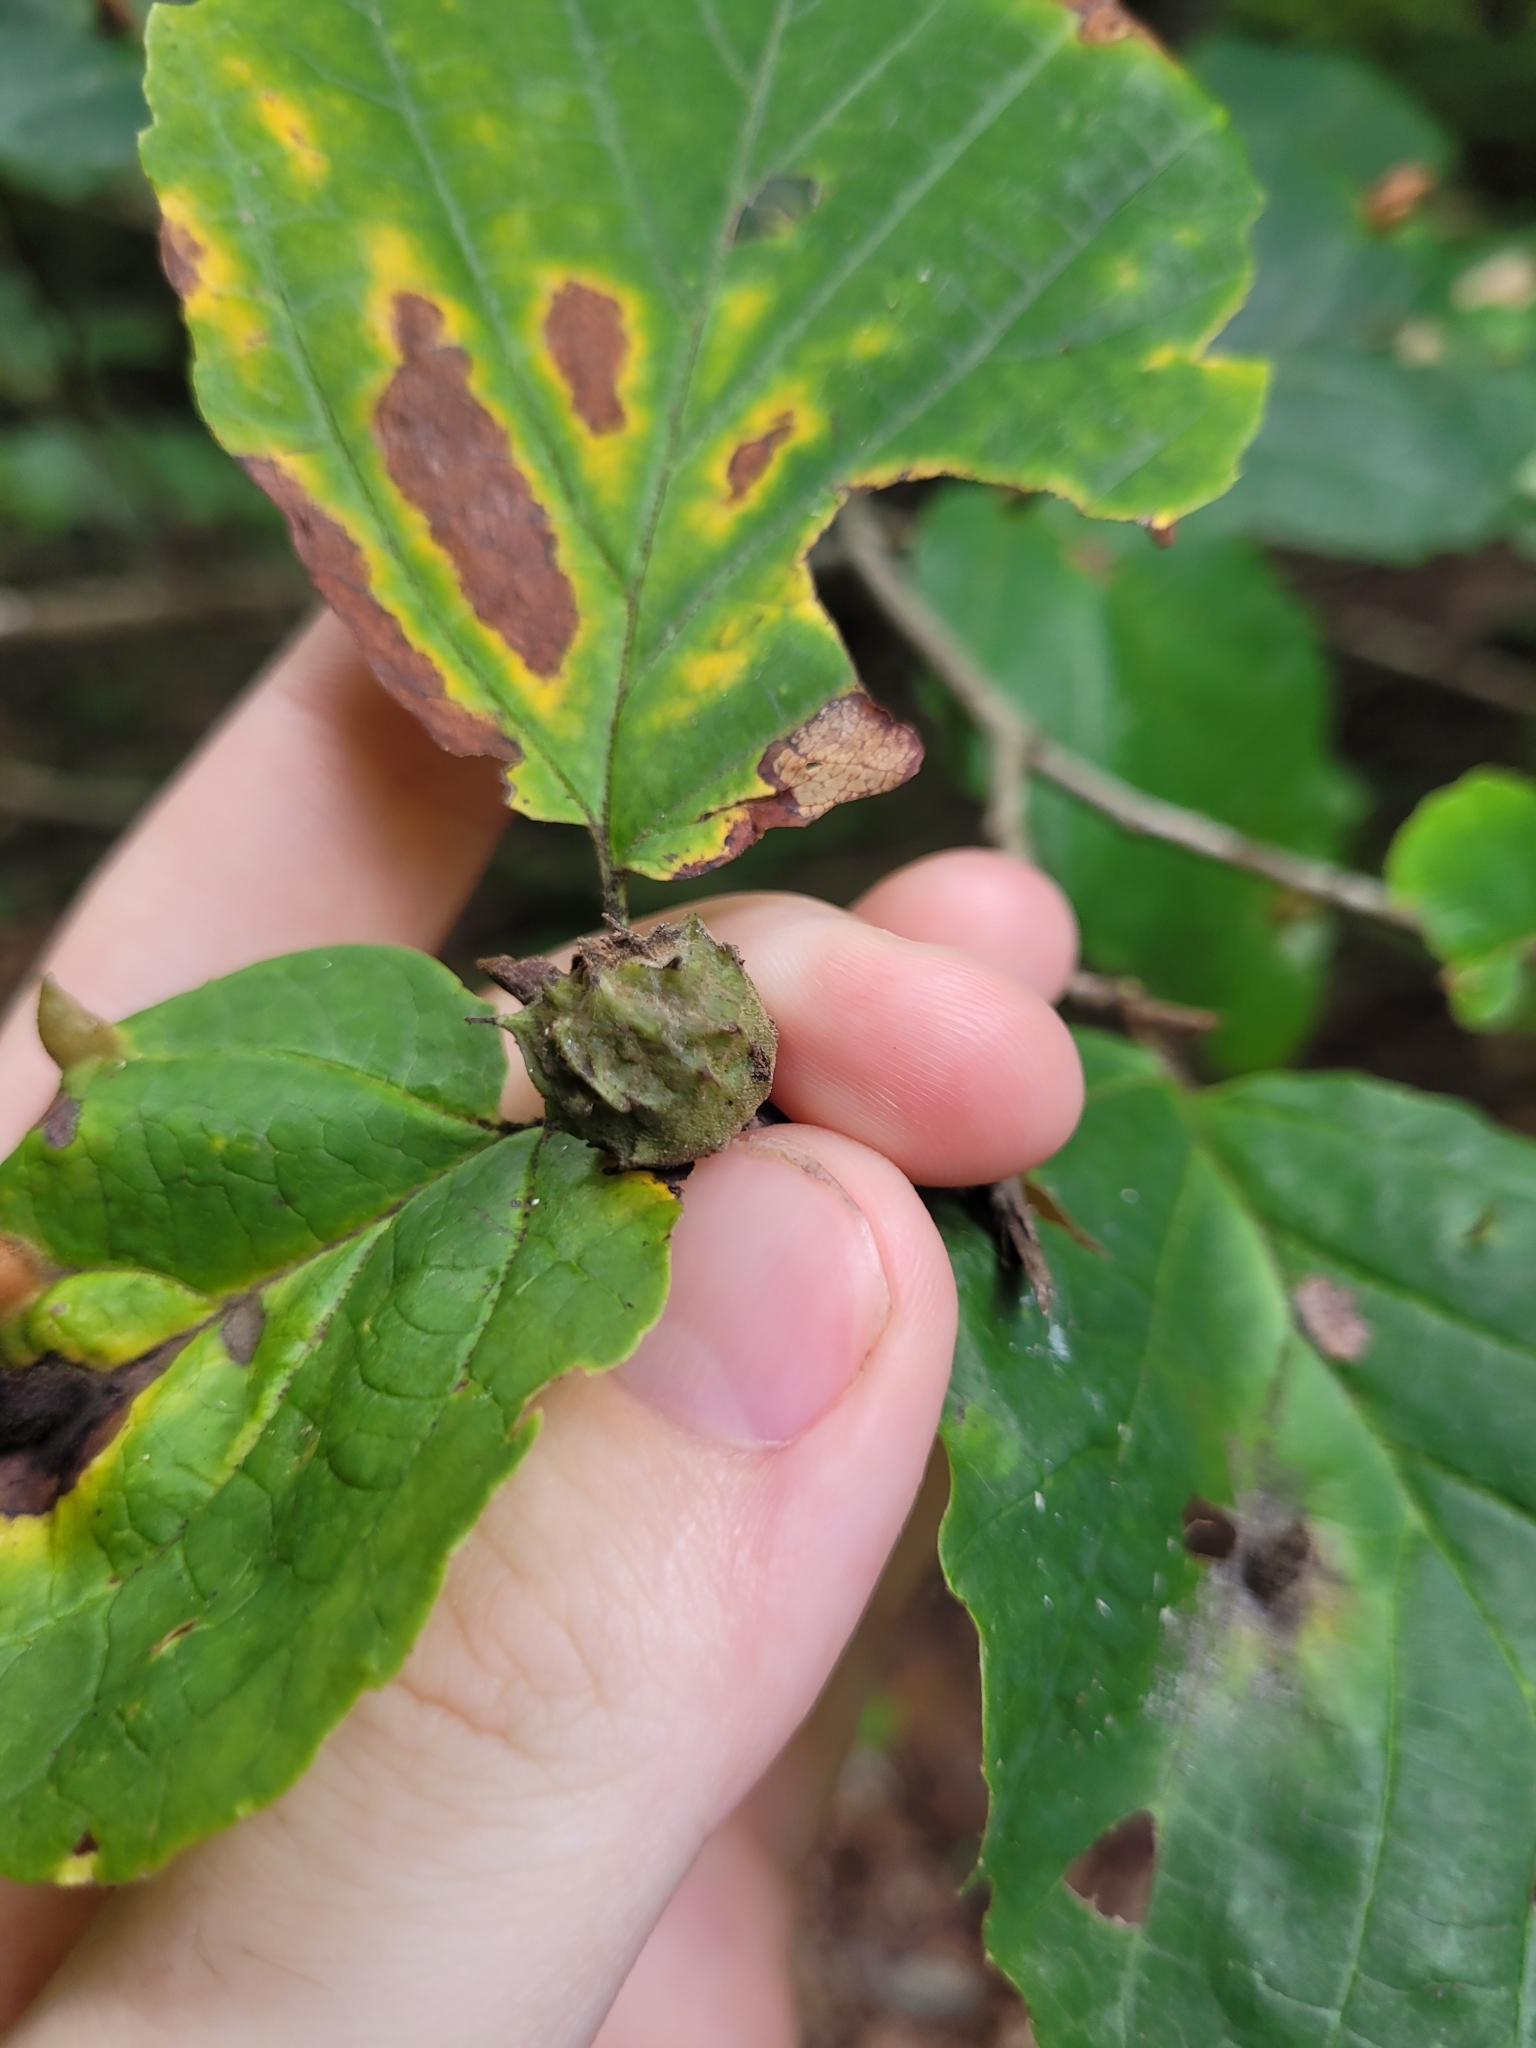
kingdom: Animalia
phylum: Arthropoda
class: Insecta
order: Hemiptera
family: Aphididae
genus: Hamamelistes
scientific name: Hamamelistes spinosus
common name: Witch hazel gall aphid
